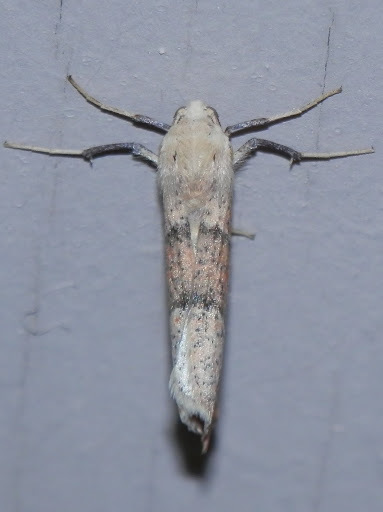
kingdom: Animalia
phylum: Arthropoda
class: Insecta
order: Lepidoptera
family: Geometridae
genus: Sicya
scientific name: Sicya morsicaria
